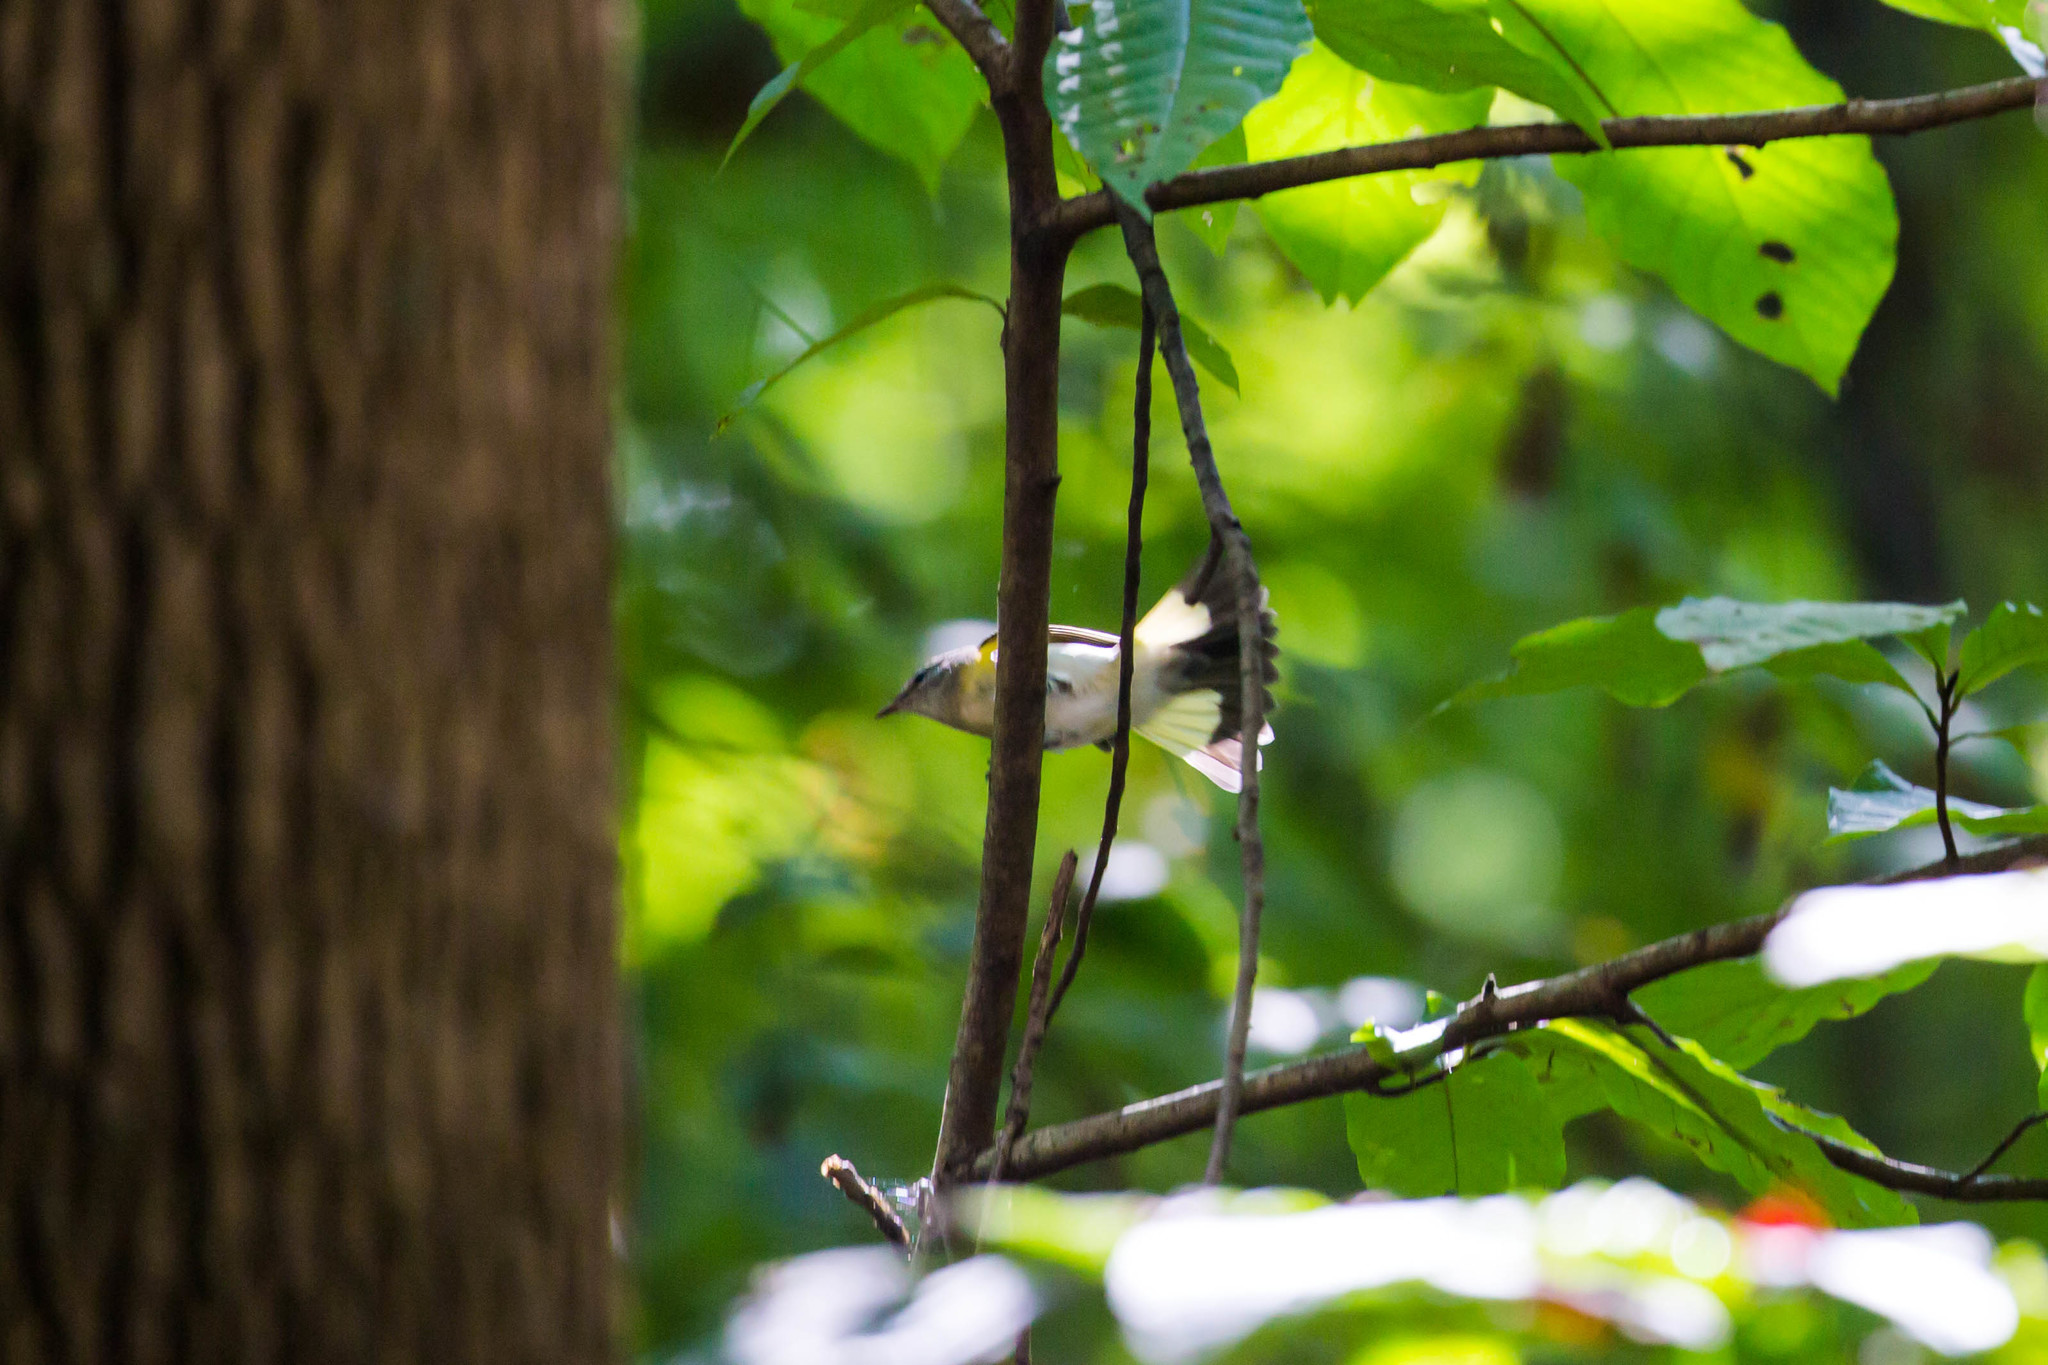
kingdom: Animalia
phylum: Chordata
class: Aves
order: Passeriformes
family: Parulidae
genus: Setophaga
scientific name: Setophaga ruticilla
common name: American redstart
